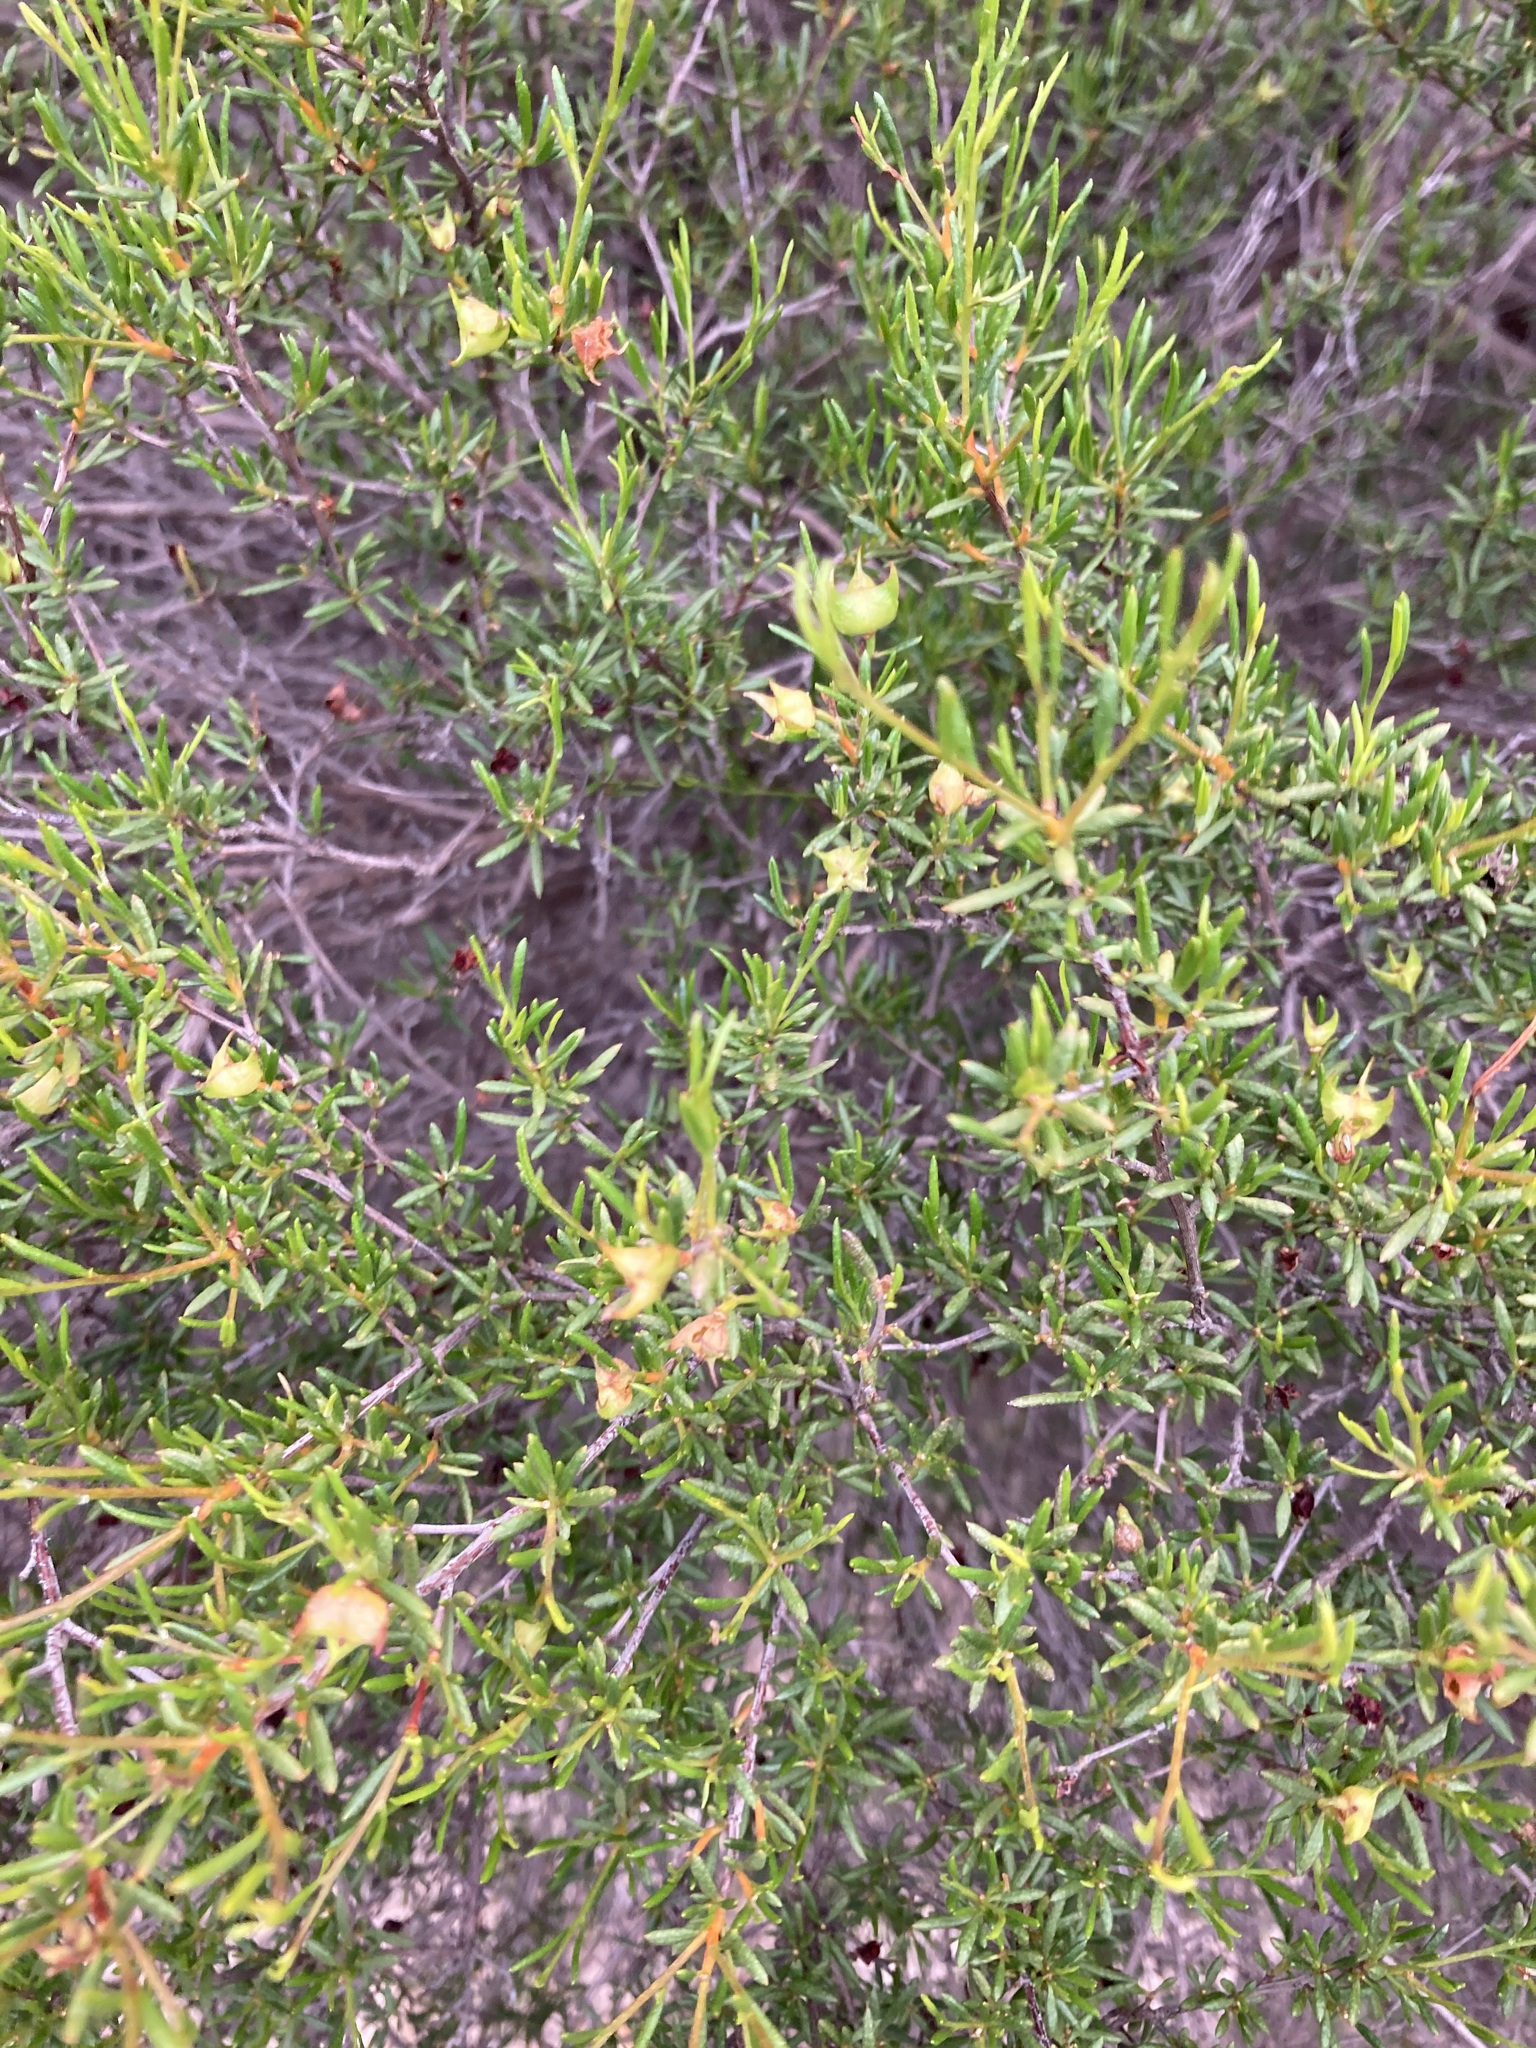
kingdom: Plantae
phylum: Tracheophyta
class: Magnoliopsida
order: Sapindales
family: Sapindaceae
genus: Dodonaea
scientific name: Dodonaea pinifolia
